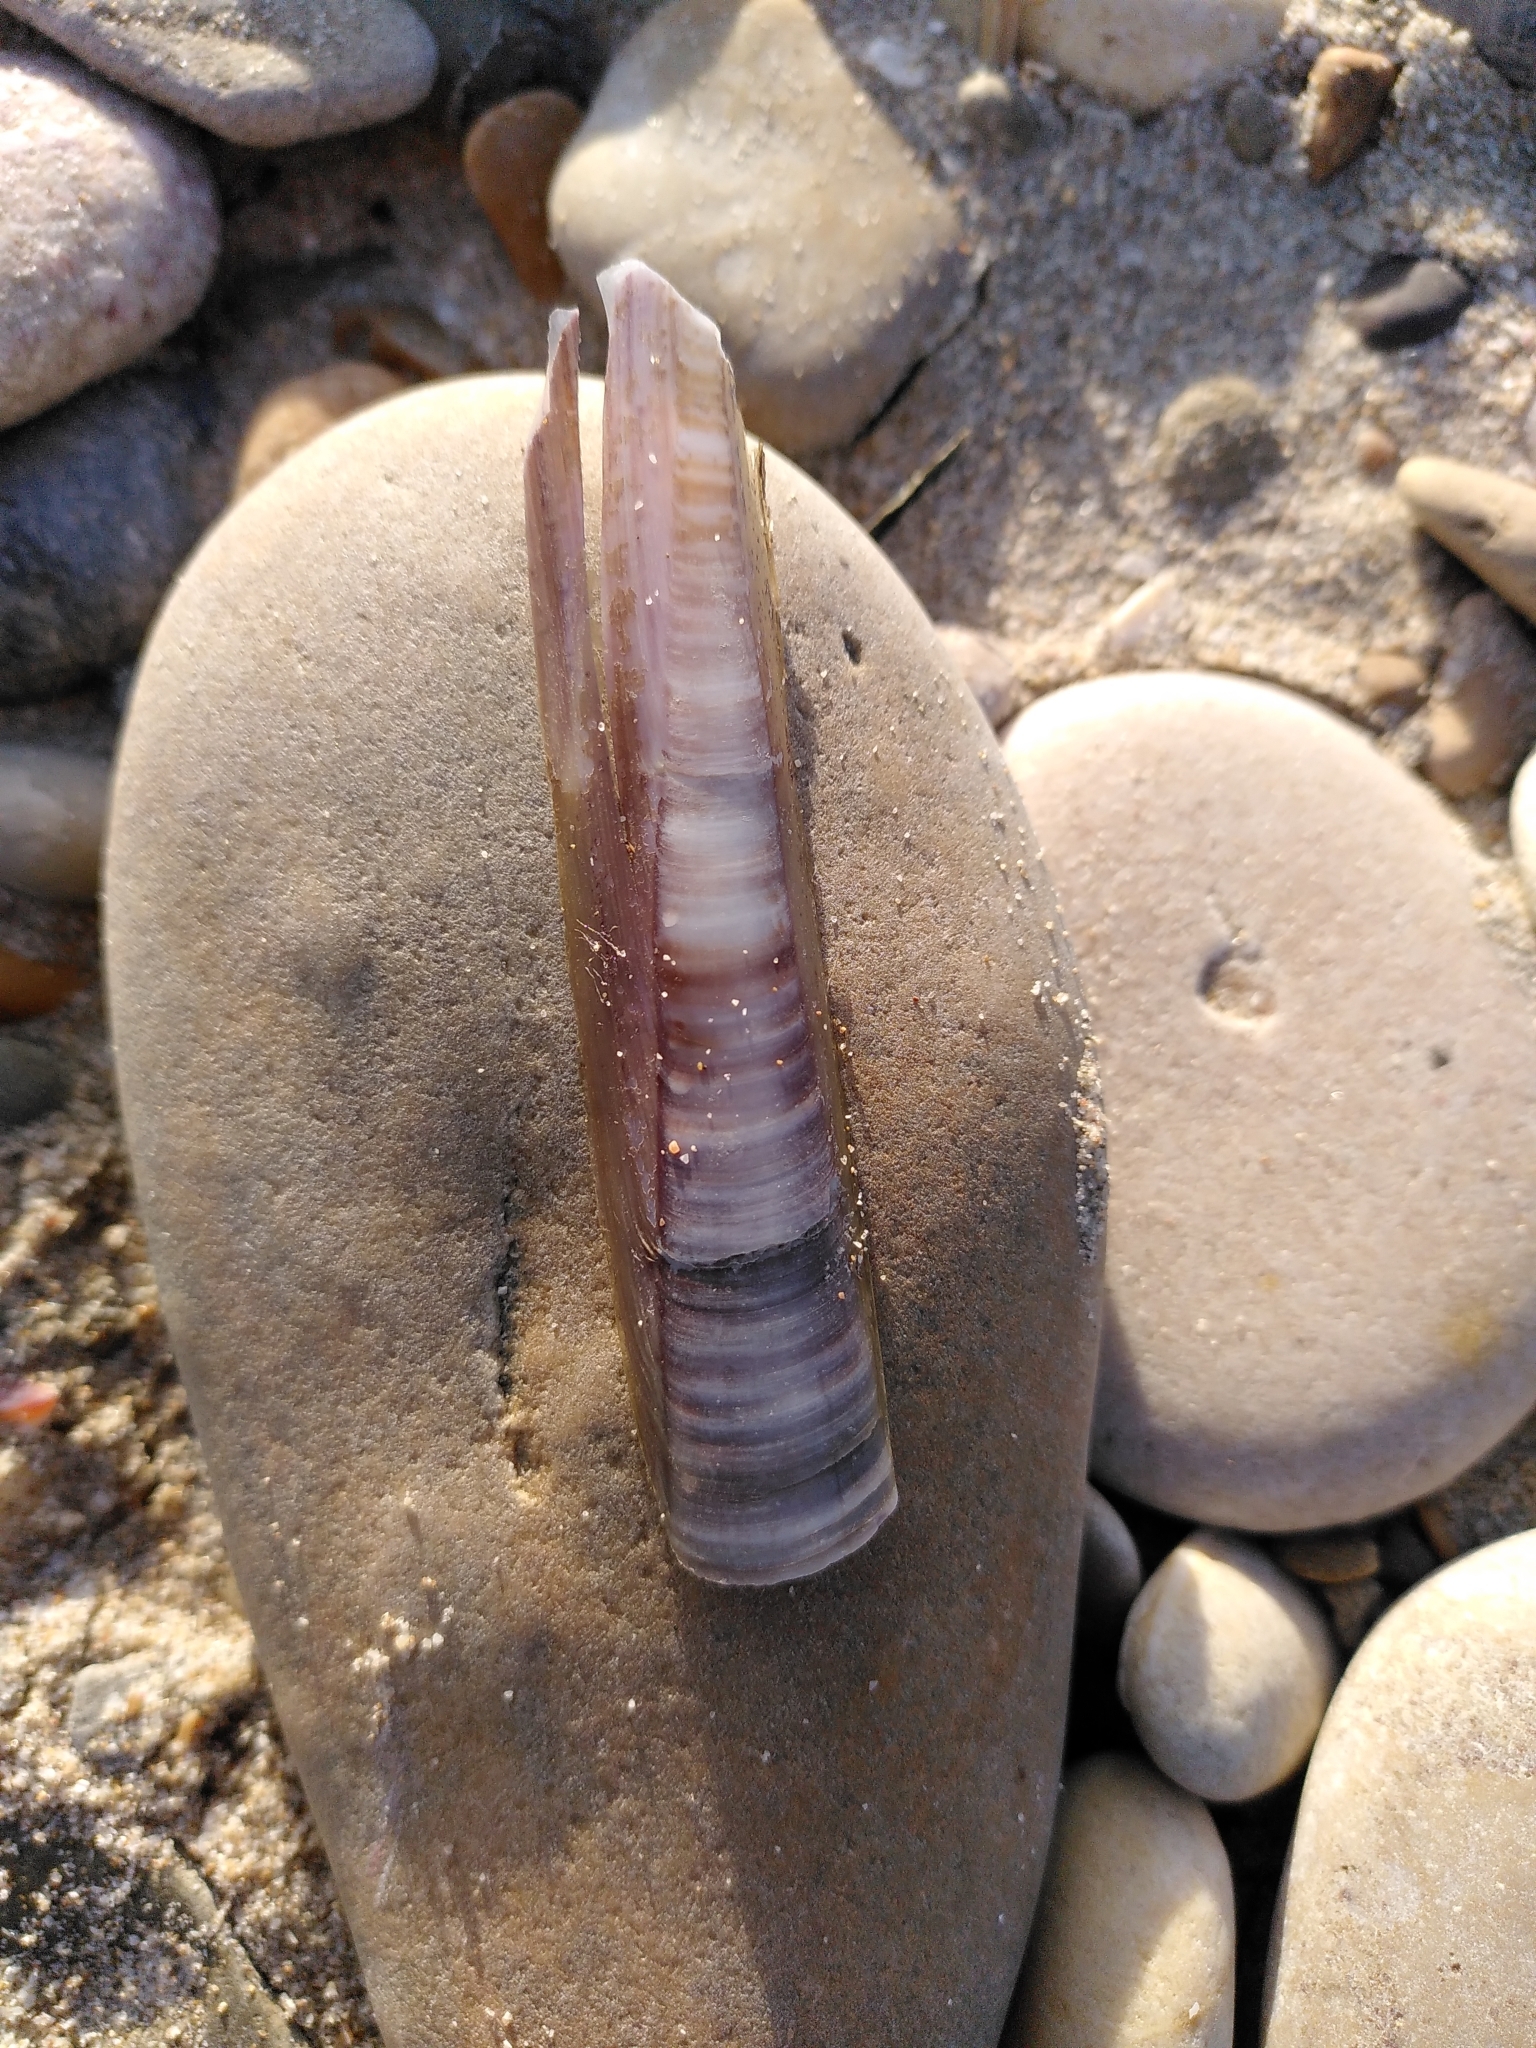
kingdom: Animalia
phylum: Mollusca
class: Bivalvia
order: Adapedonta
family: Pharidae
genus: Ensis
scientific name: Ensis minor
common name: Minor jackknife clam
